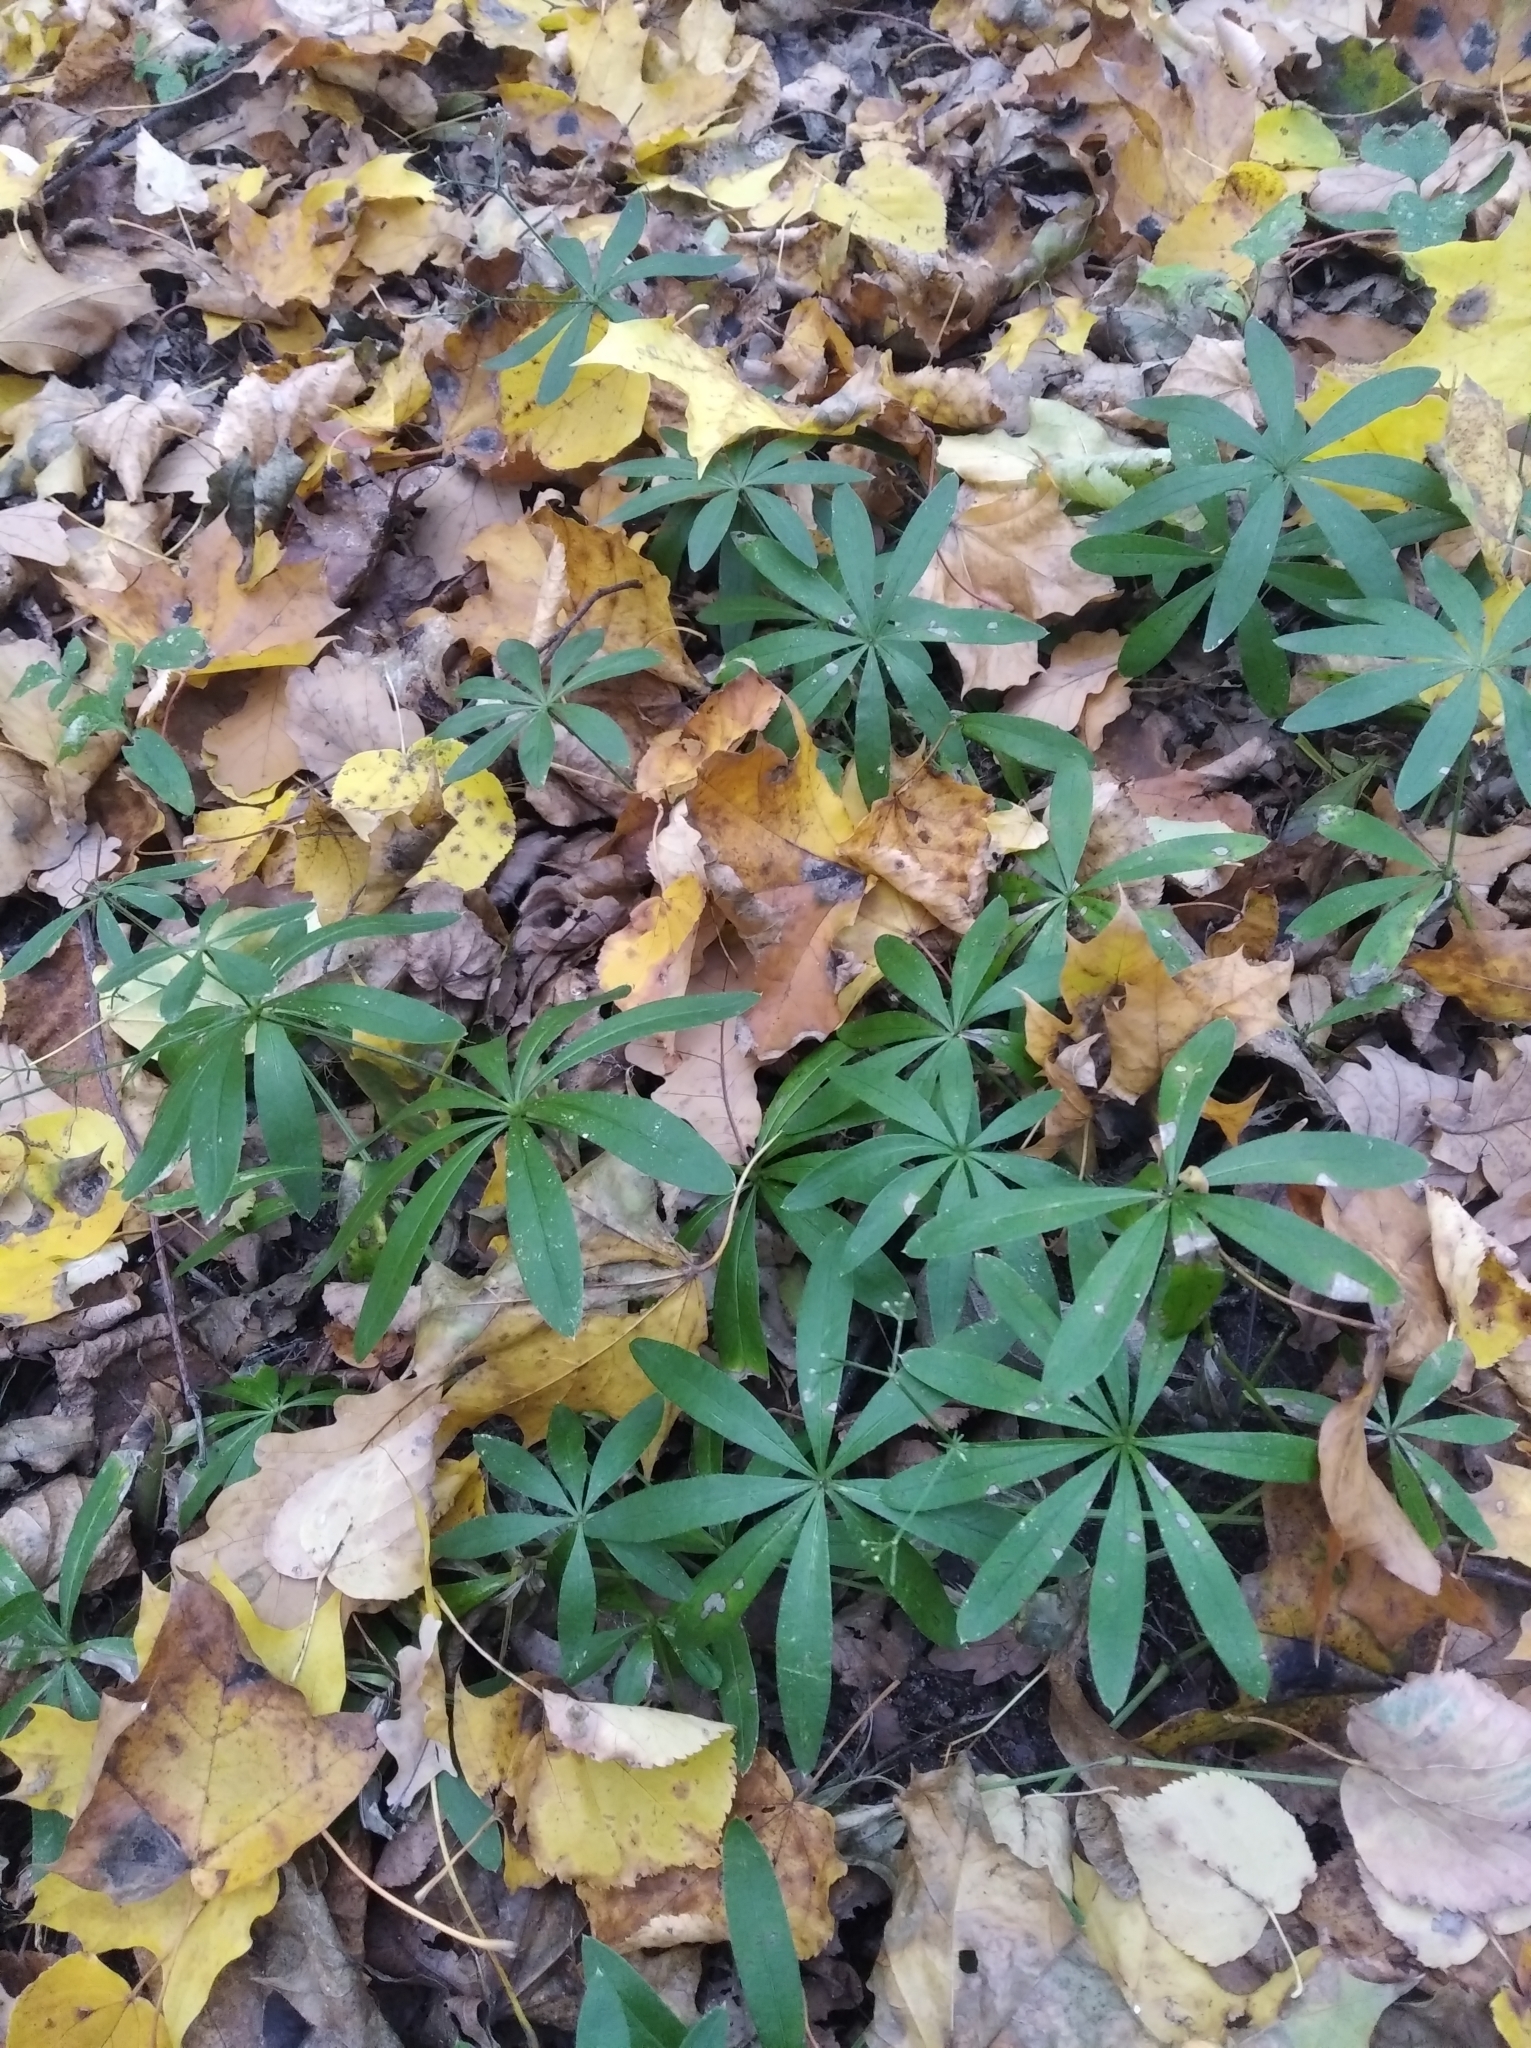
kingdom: Plantae
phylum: Tracheophyta
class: Magnoliopsida
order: Gentianales
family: Rubiaceae
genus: Galium
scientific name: Galium odoratum
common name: Sweet woodruff
